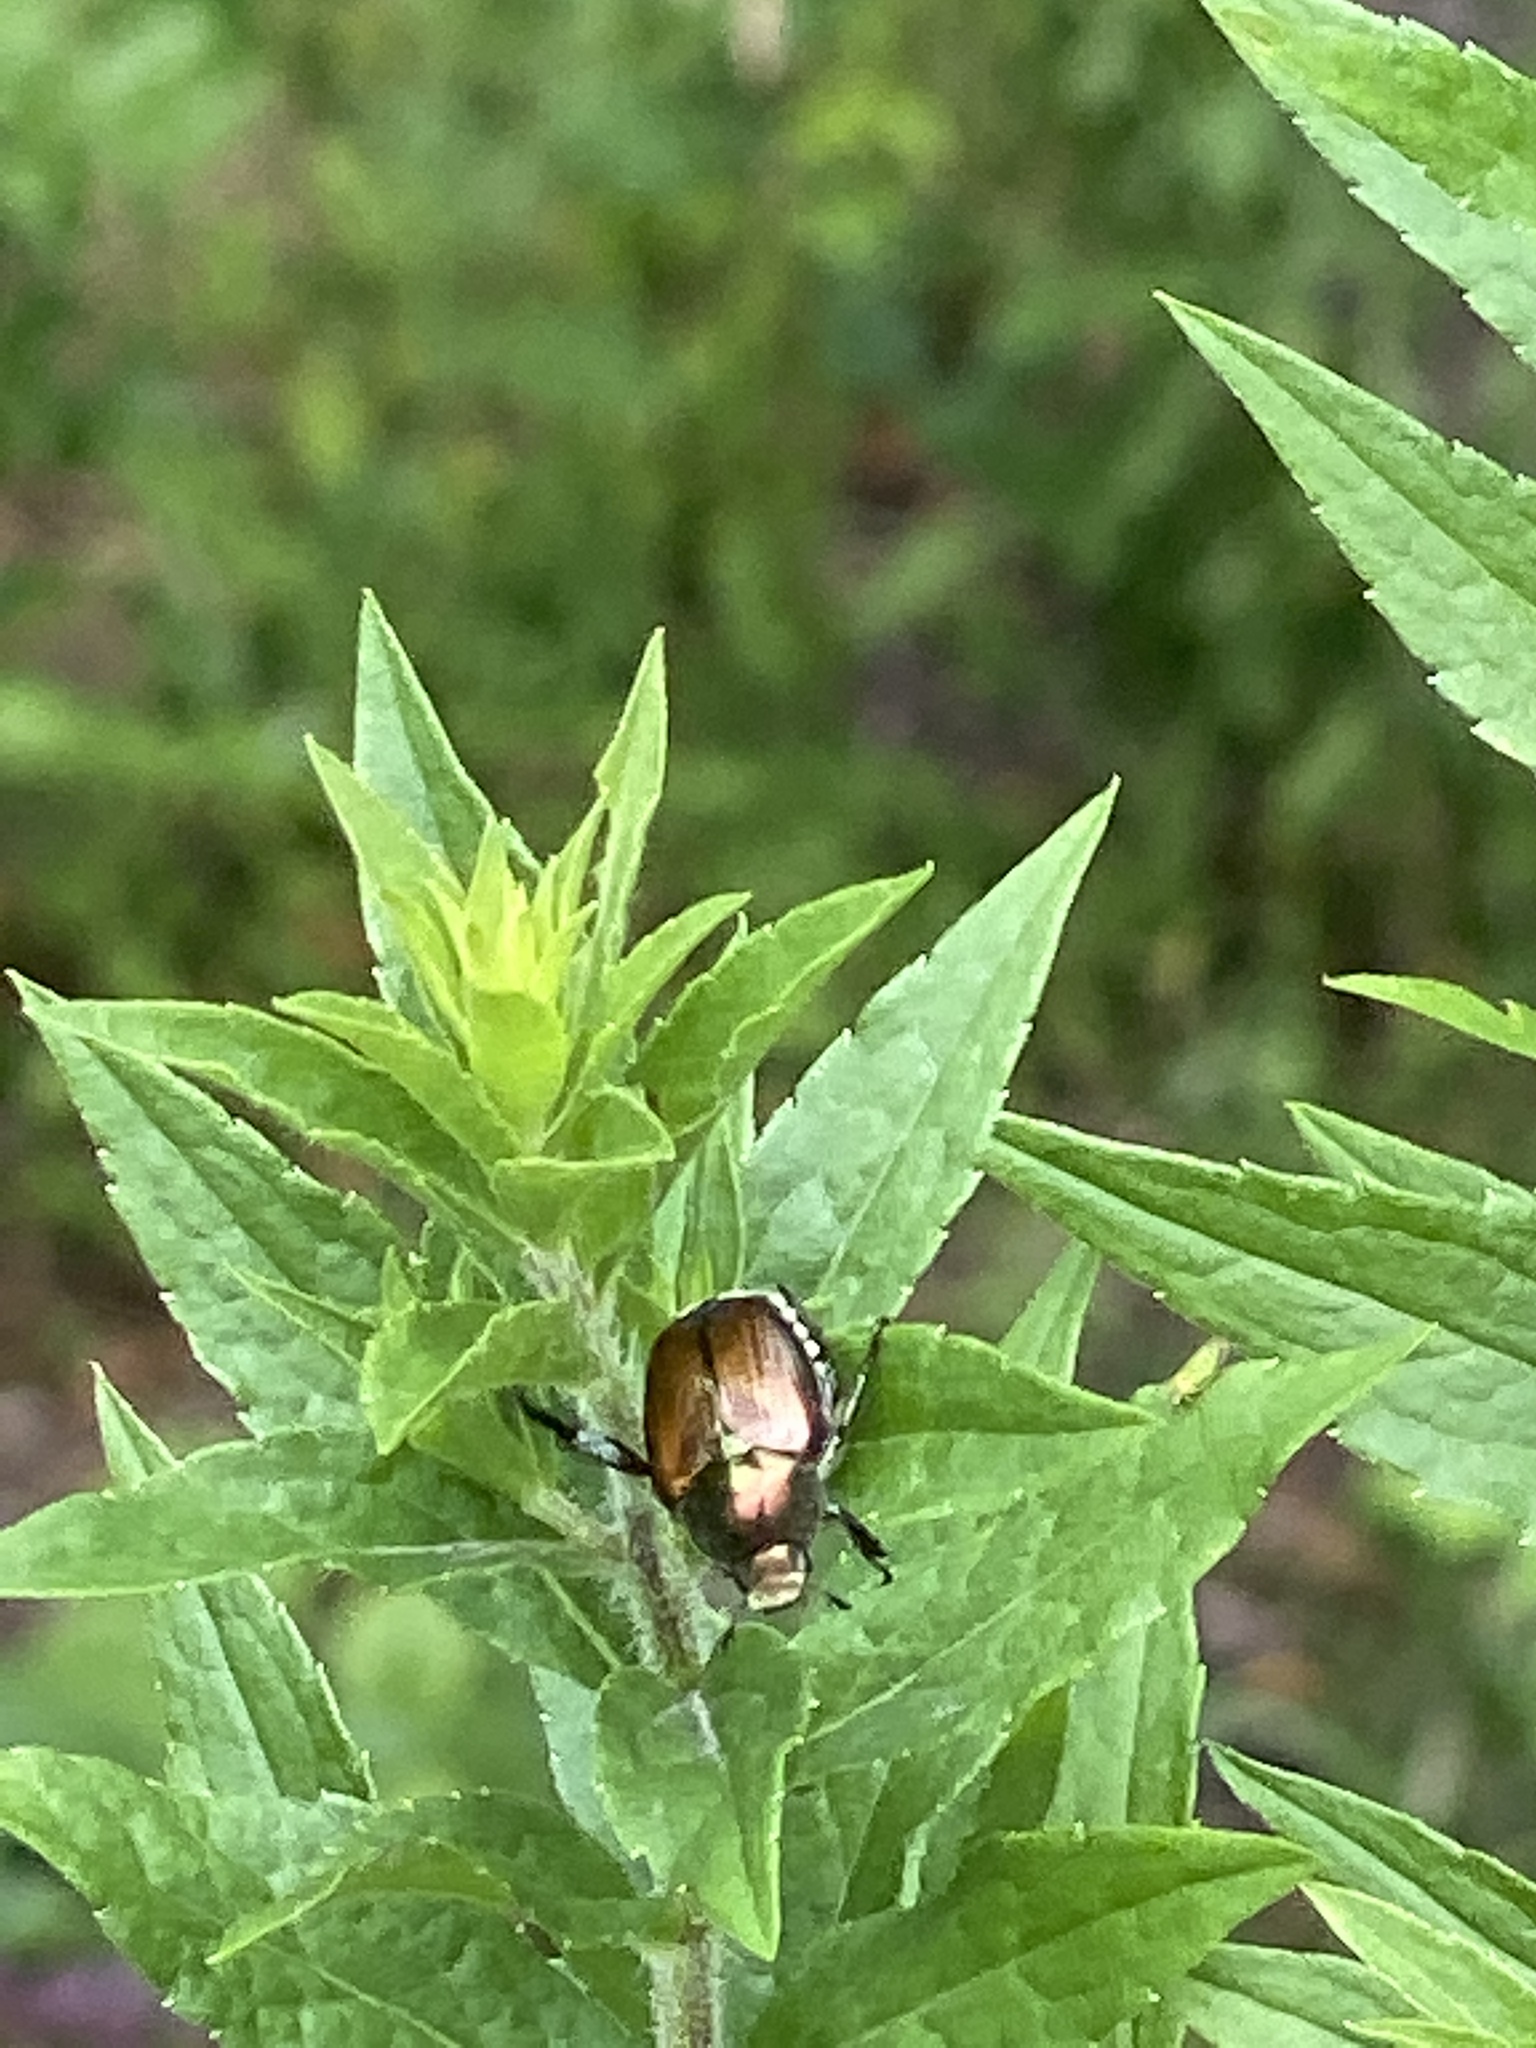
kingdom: Animalia
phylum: Arthropoda
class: Insecta
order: Coleoptera
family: Scarabaeidae
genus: Popillia
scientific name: Popillia japonica
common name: Japanese beetle
